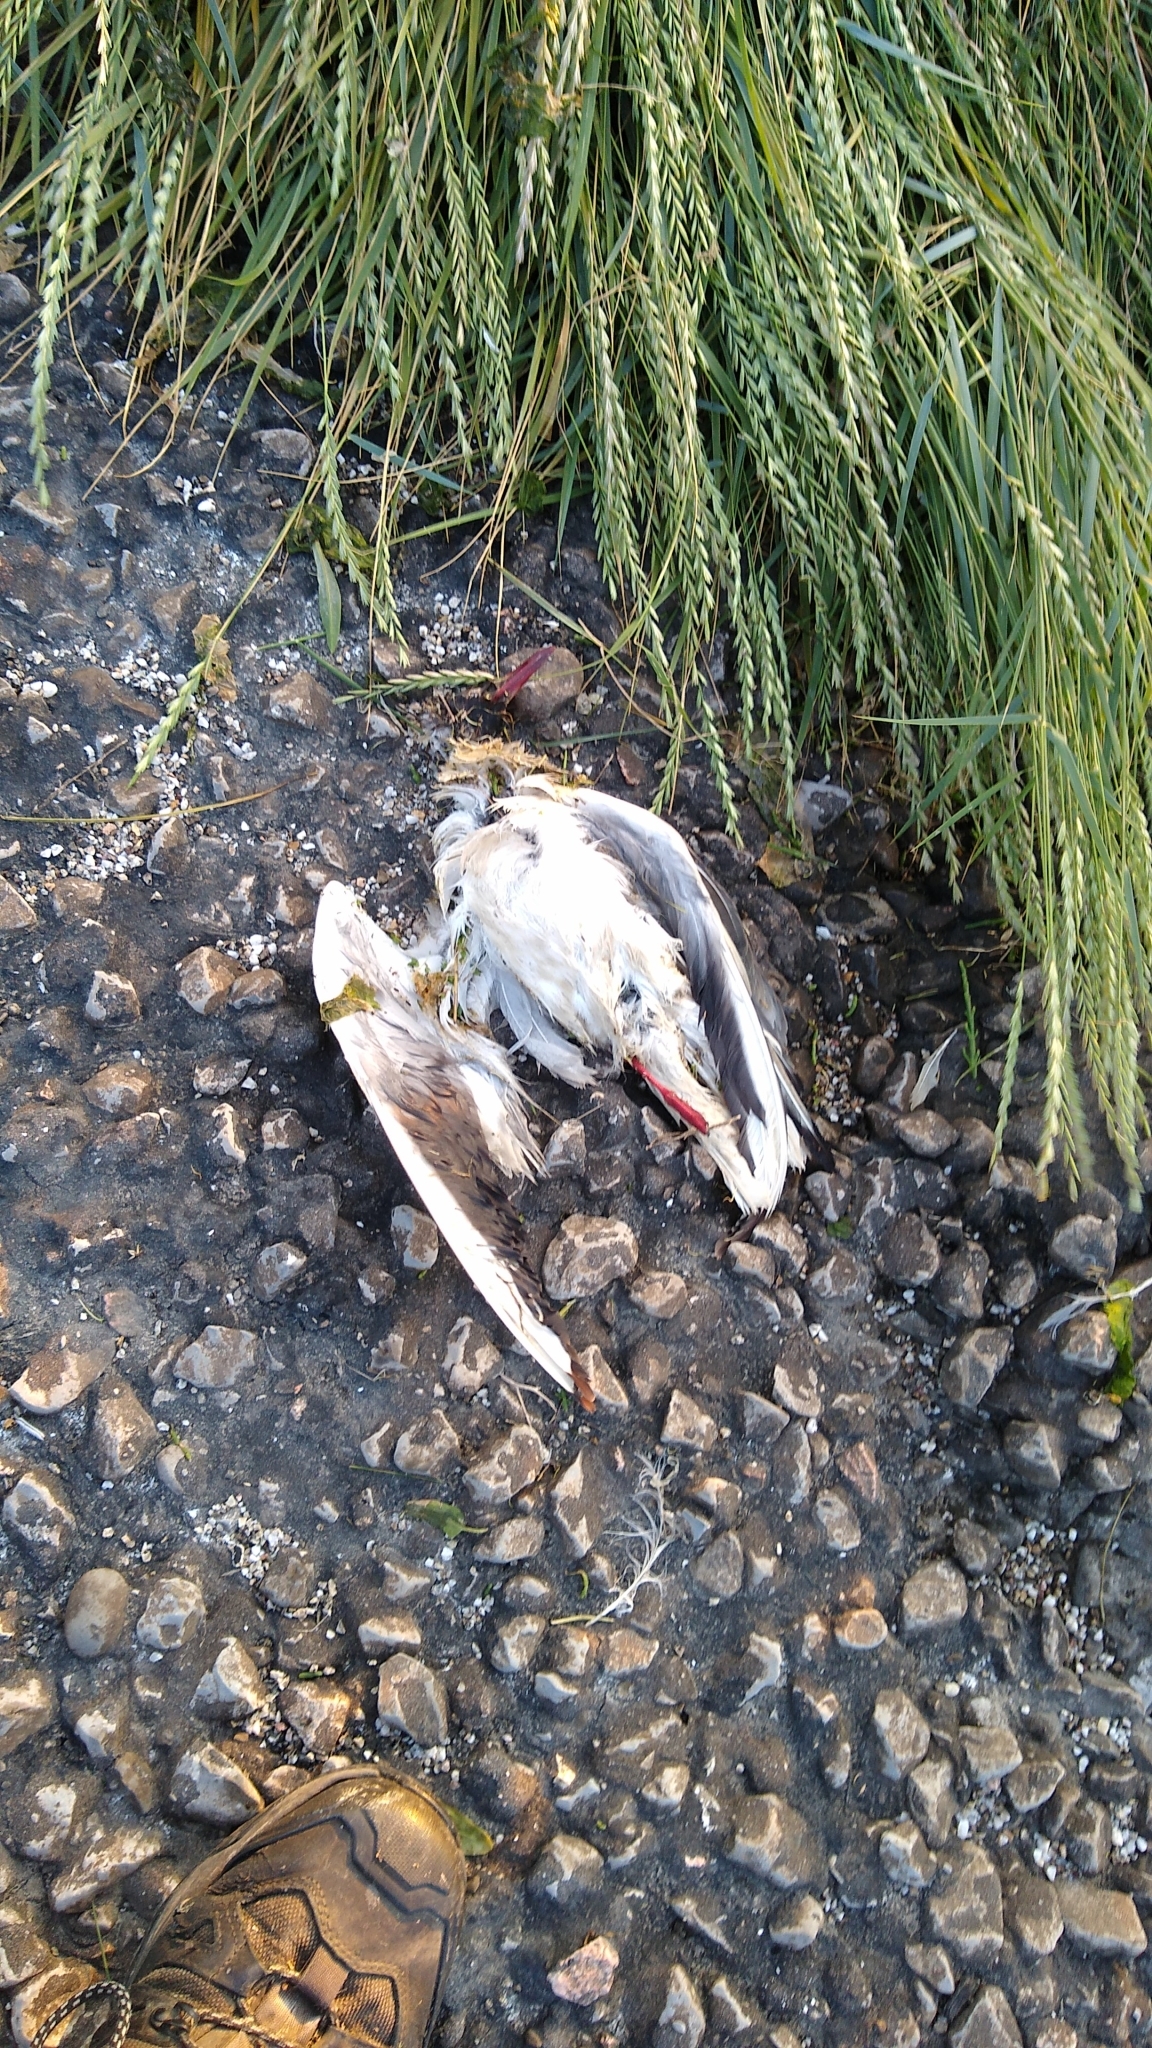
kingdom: Animalia
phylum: Chordata
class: Aves
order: Charadriiformes
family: Laridae
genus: Chroicocephalus
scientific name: Chroicocephalus ridibundus
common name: Black-headed gull
